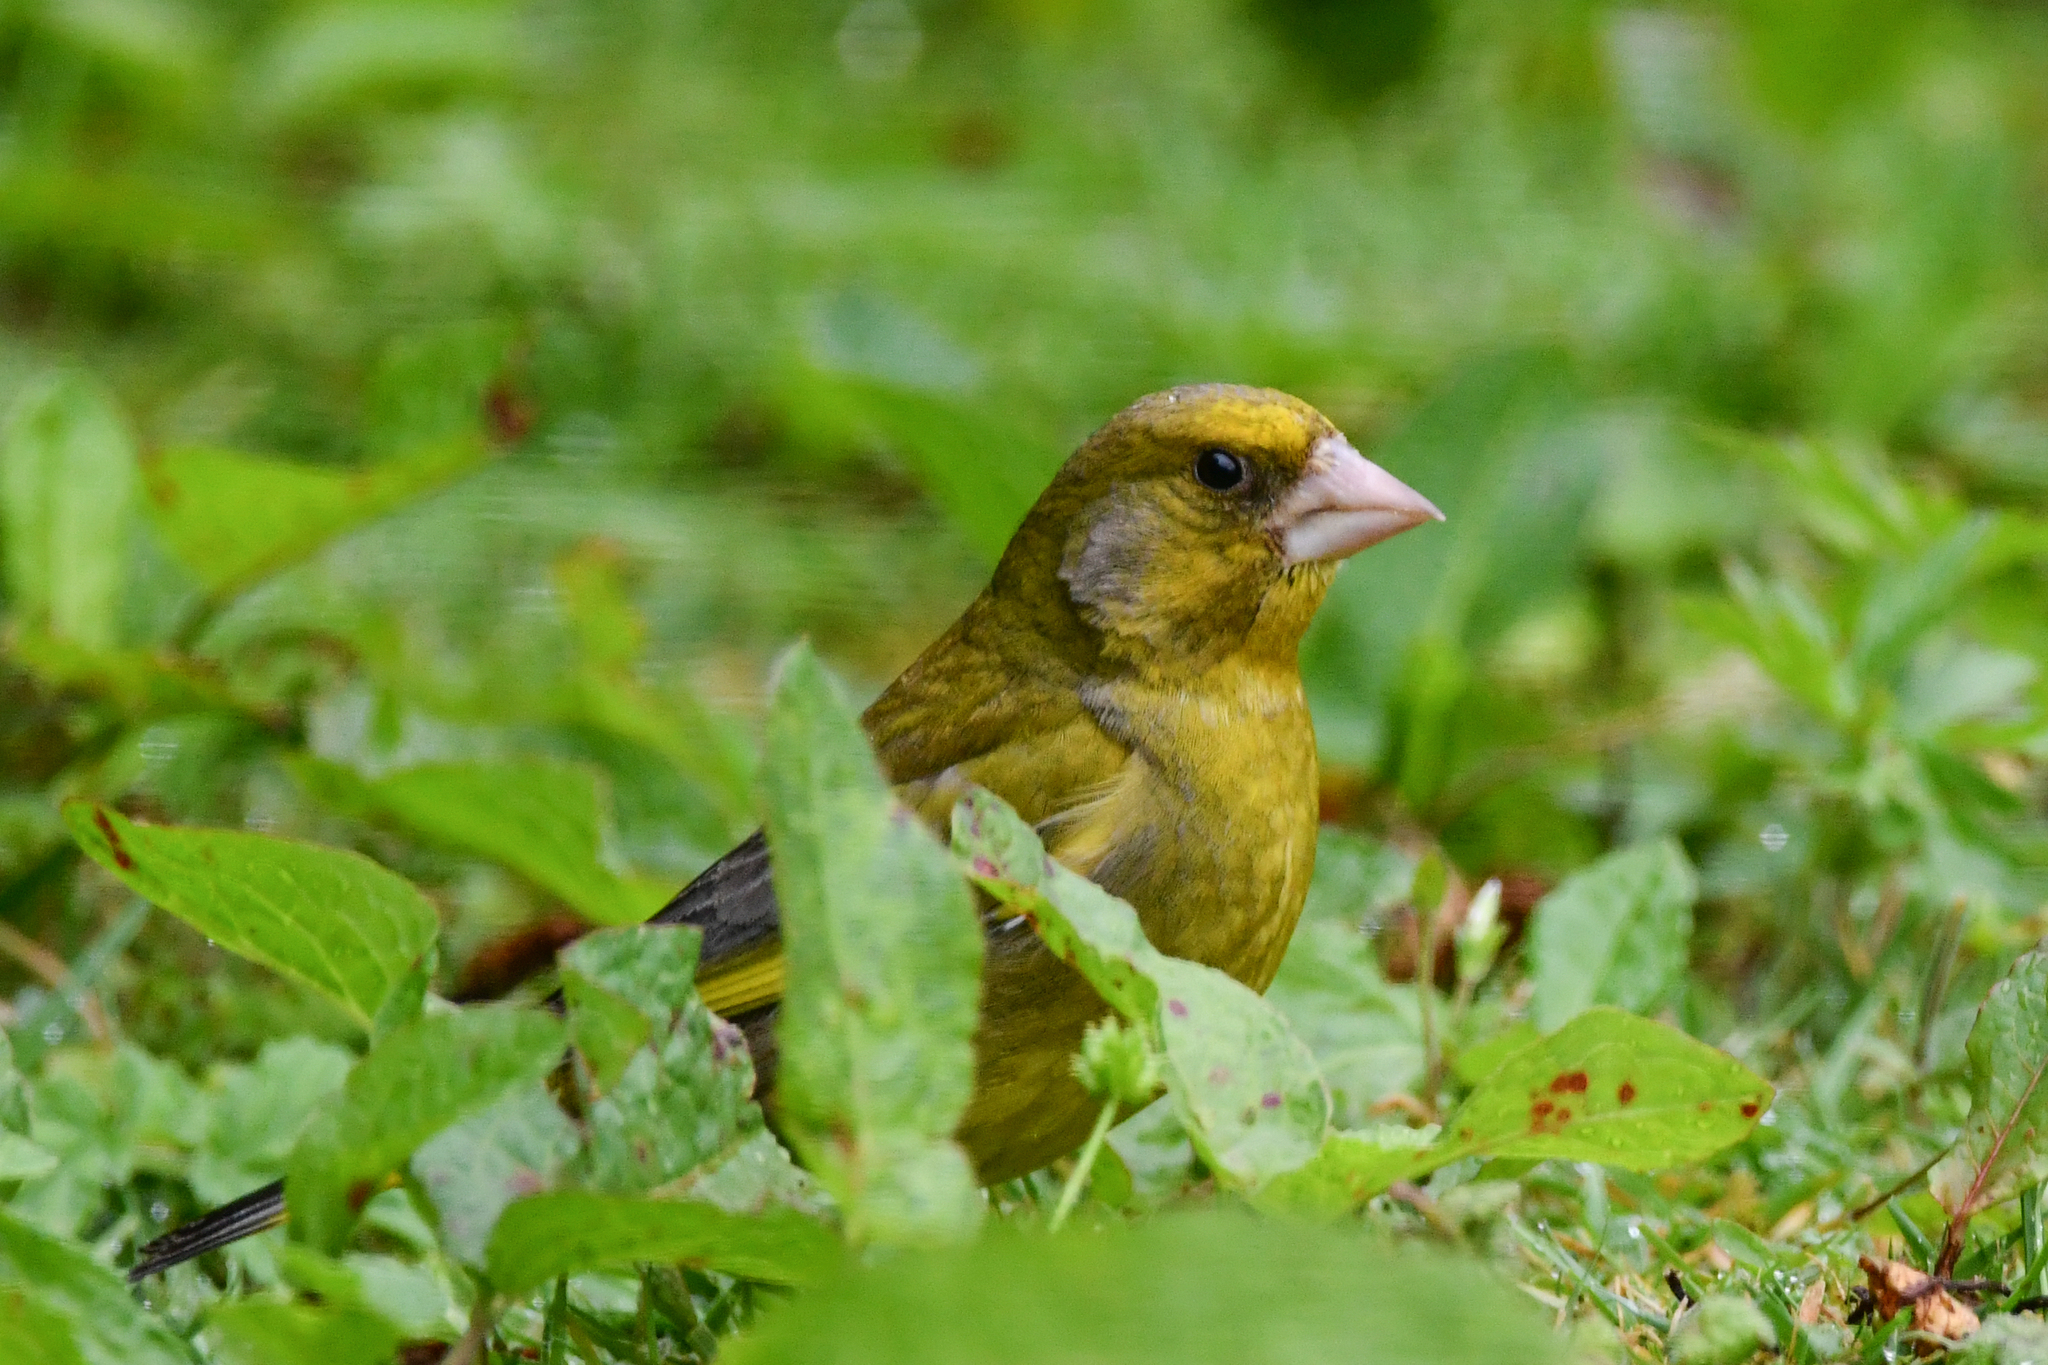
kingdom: Plantae
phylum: Tracheophyta
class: Liliopsida
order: Poales
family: Poaceae
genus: Chloris
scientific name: Chloris chloris
